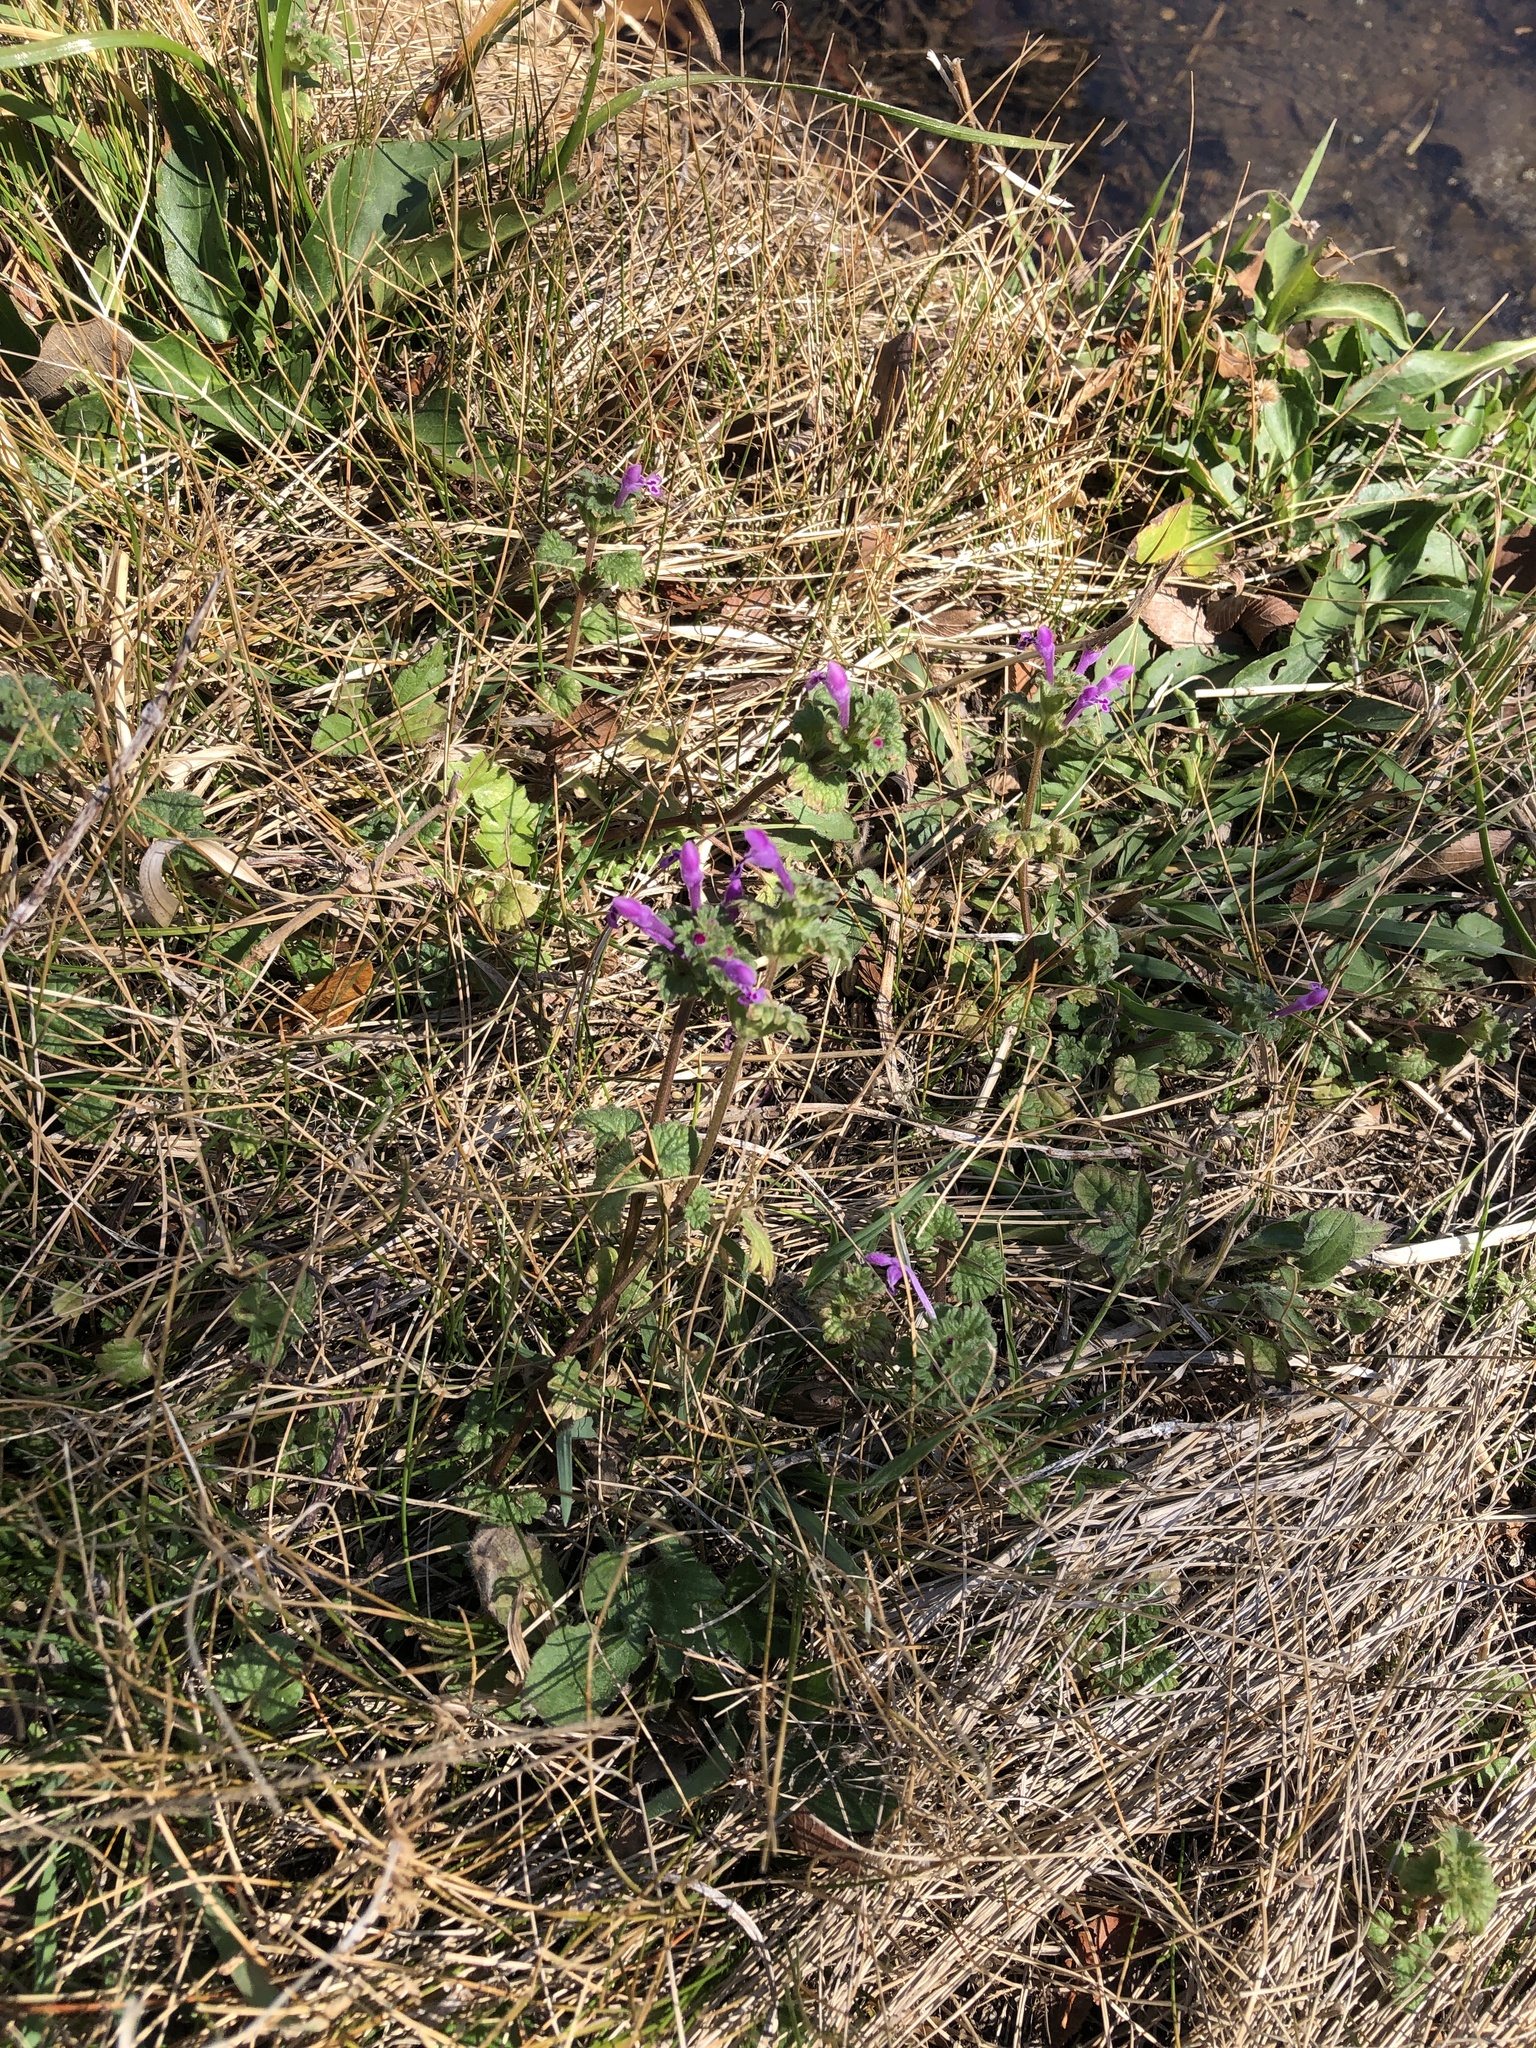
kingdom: Plantae
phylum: Tracheophyta
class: Magnoliopsida
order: Lamiales
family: Lamiaceae
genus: Lamium
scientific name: Lamium amplexicaule
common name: Henbit dead-nettle
